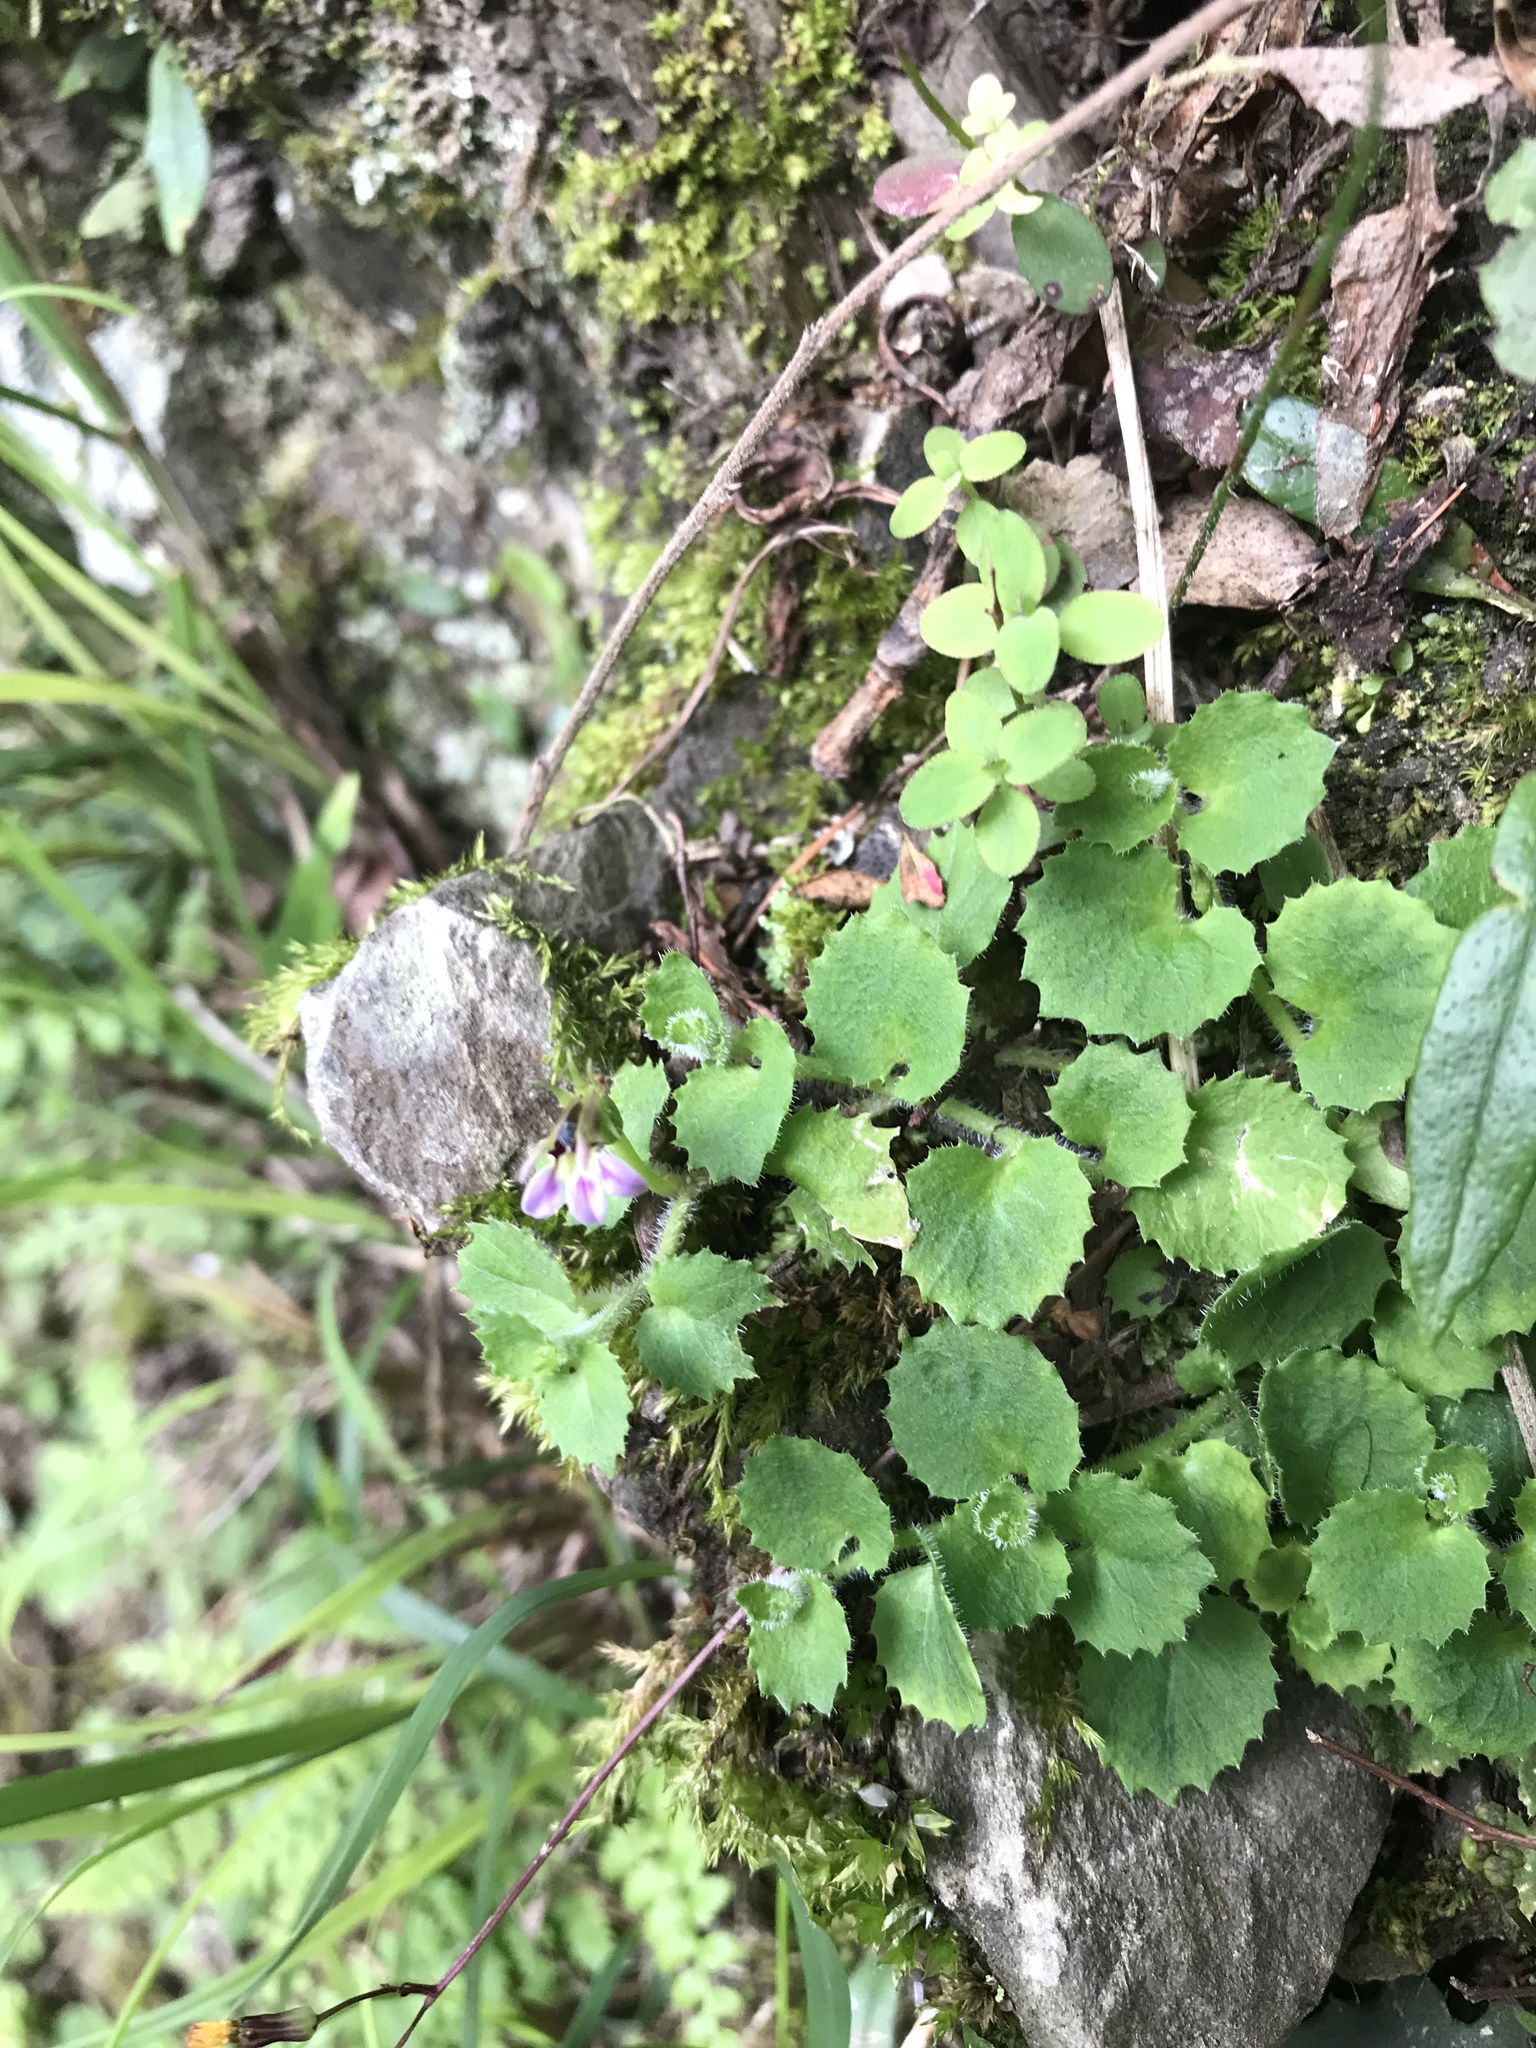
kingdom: Plantae
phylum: Tracheophyta
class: Magnoliopsida
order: Asterales
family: Campanulaceae
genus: Lobelia
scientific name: Lobelia nummularia
